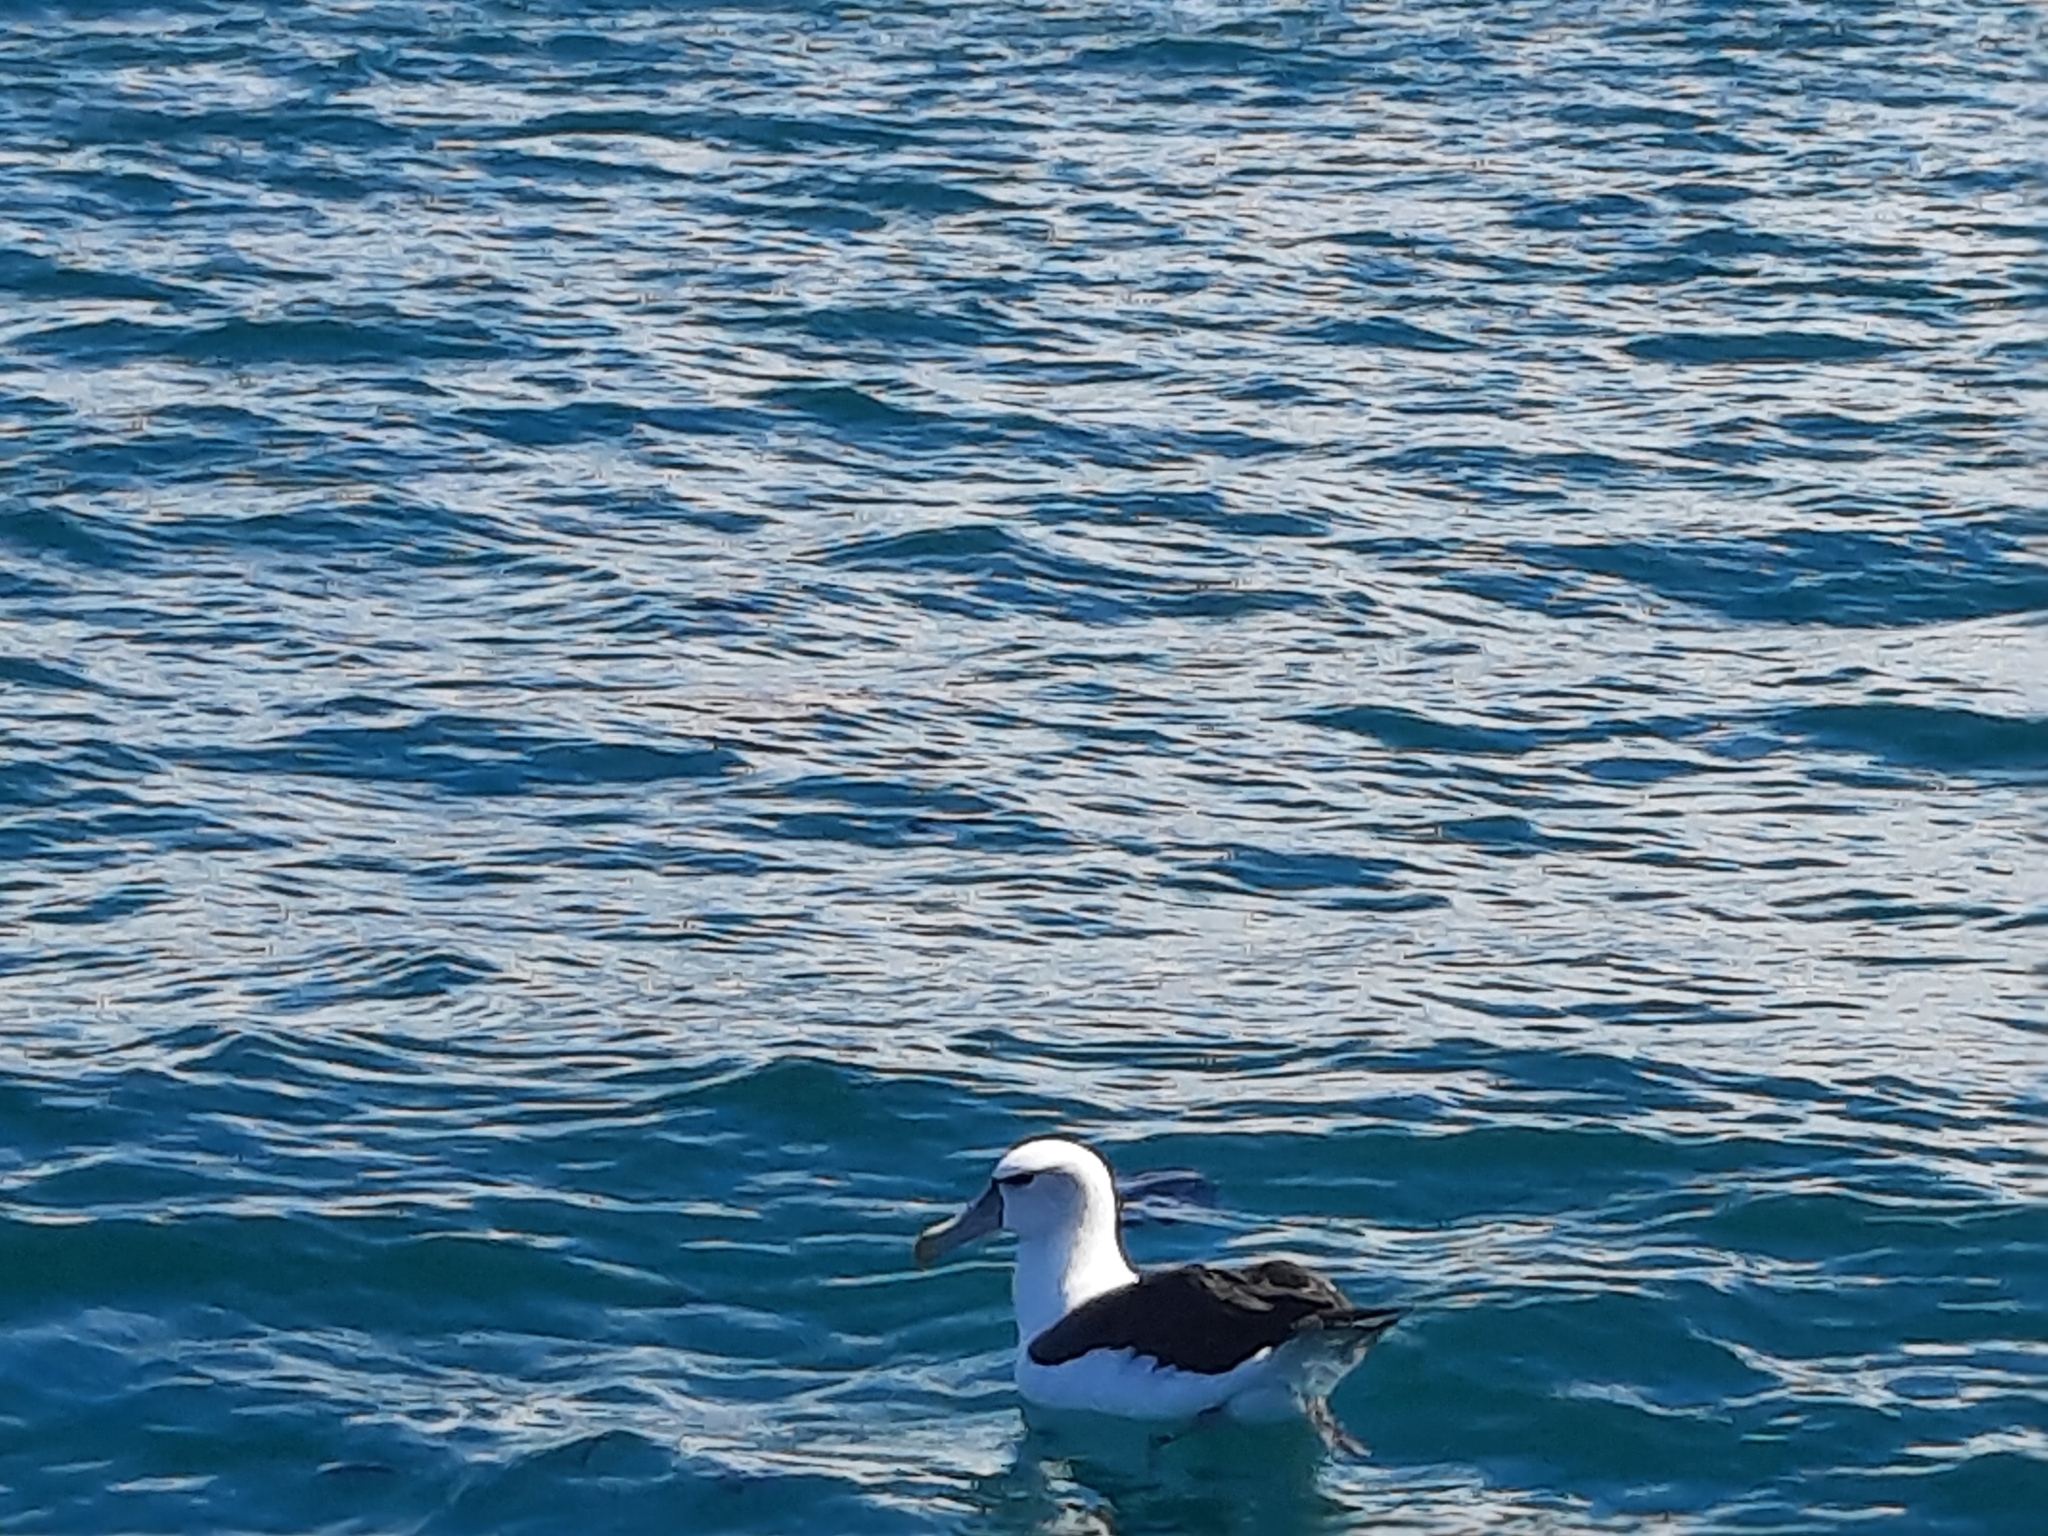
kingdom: Animalia
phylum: Chordata
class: Aves
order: Procellariiformes
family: Diomedeidae
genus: Thalassarche
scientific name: Thalassarche cauta
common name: Shy albatross
